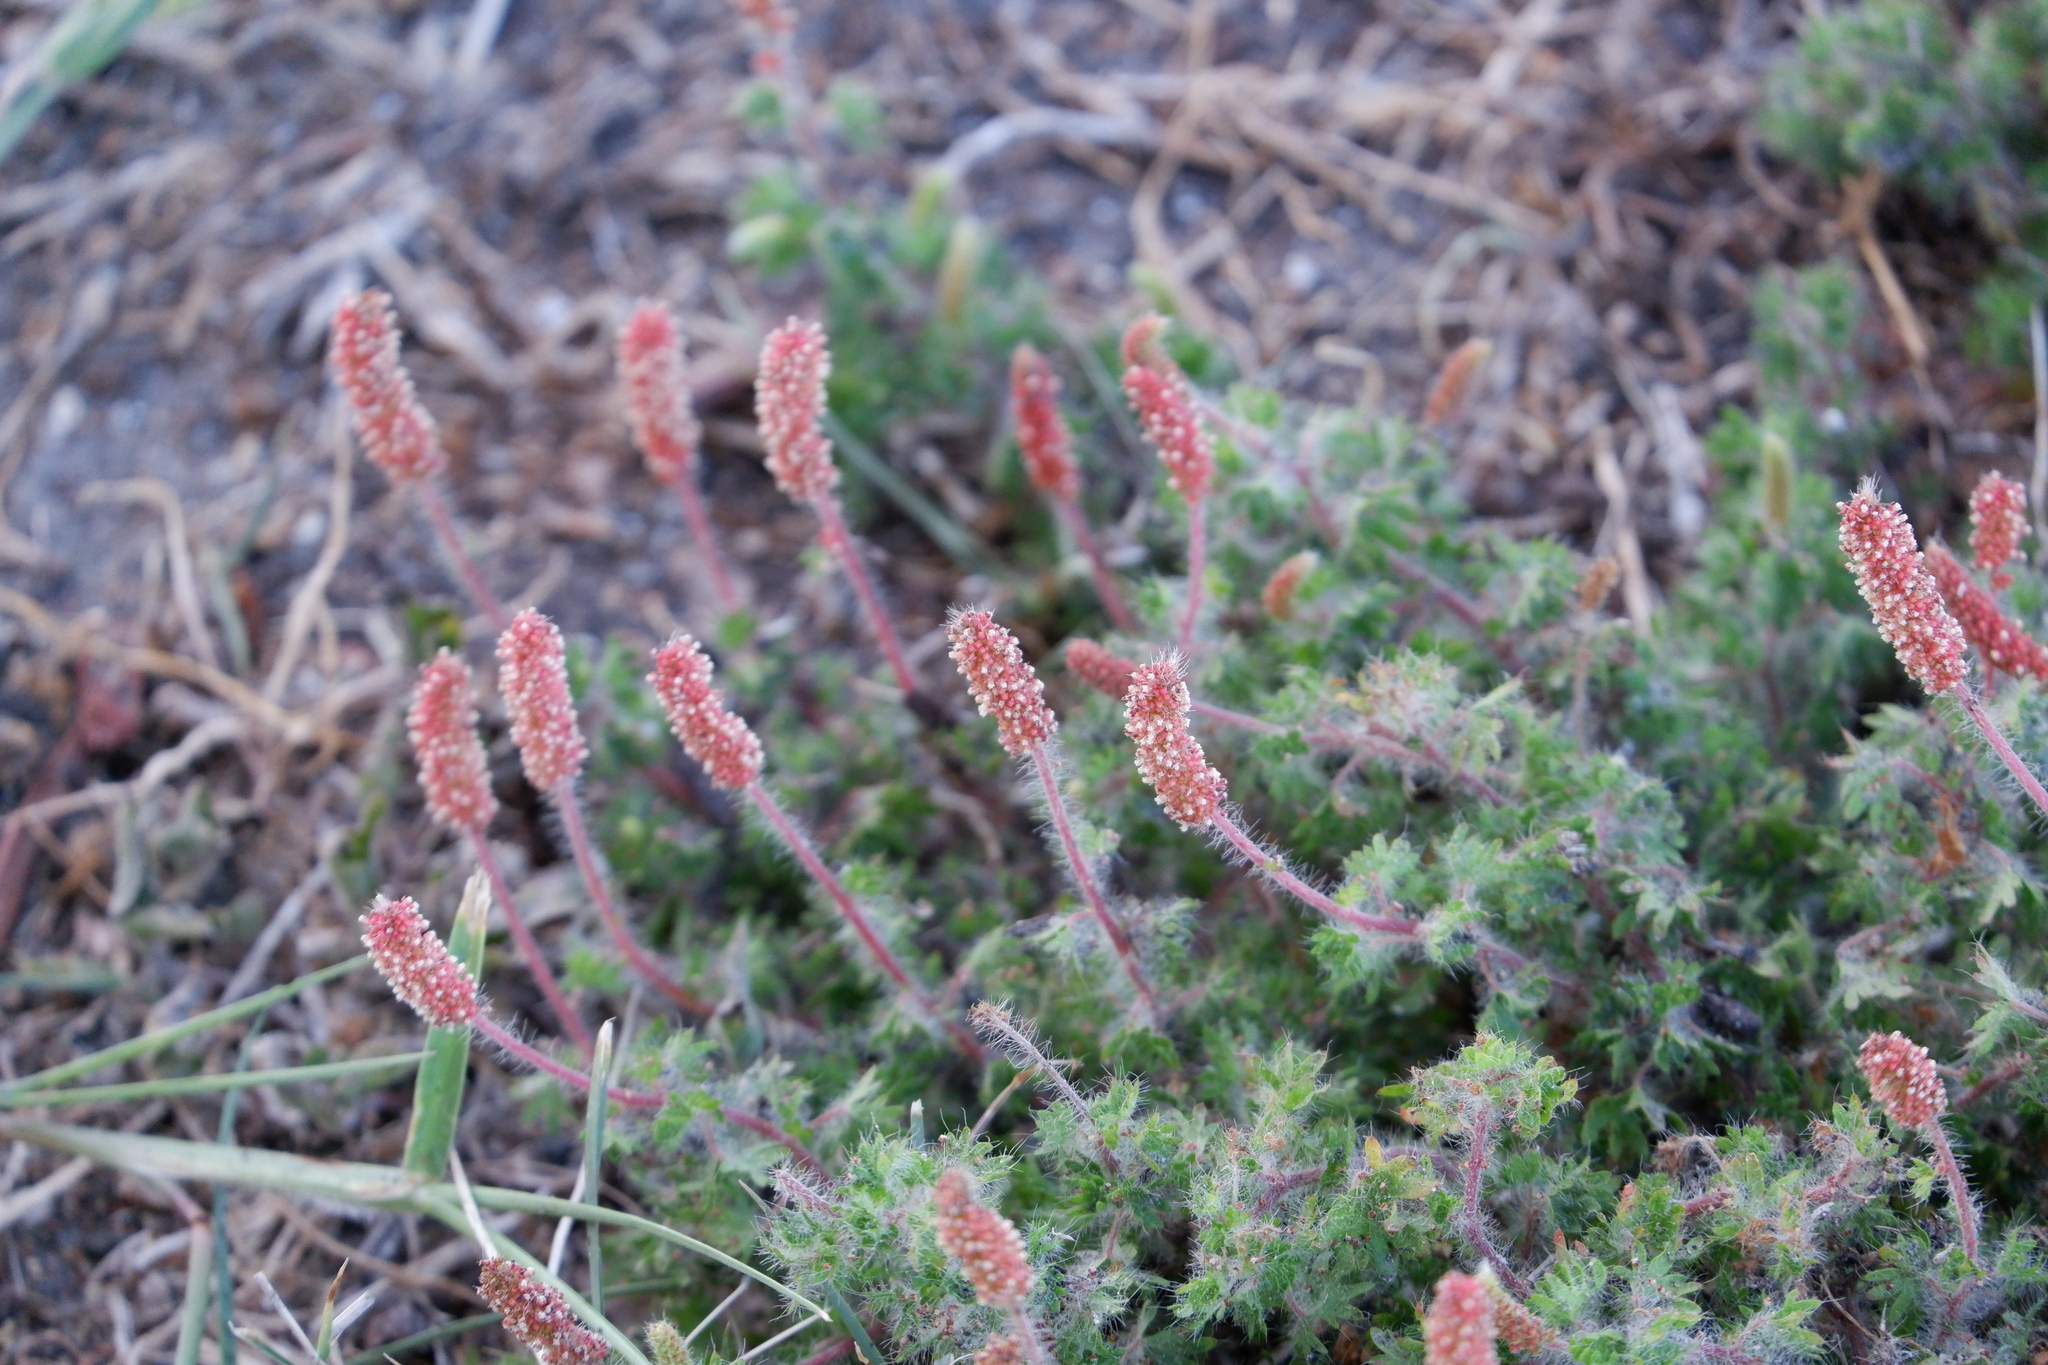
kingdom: Plantae
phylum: Tracheophyta
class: Magnoliopsida
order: Malpighiales
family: Euphorbiaceae
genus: Acalypha
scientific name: Acalypha radians
